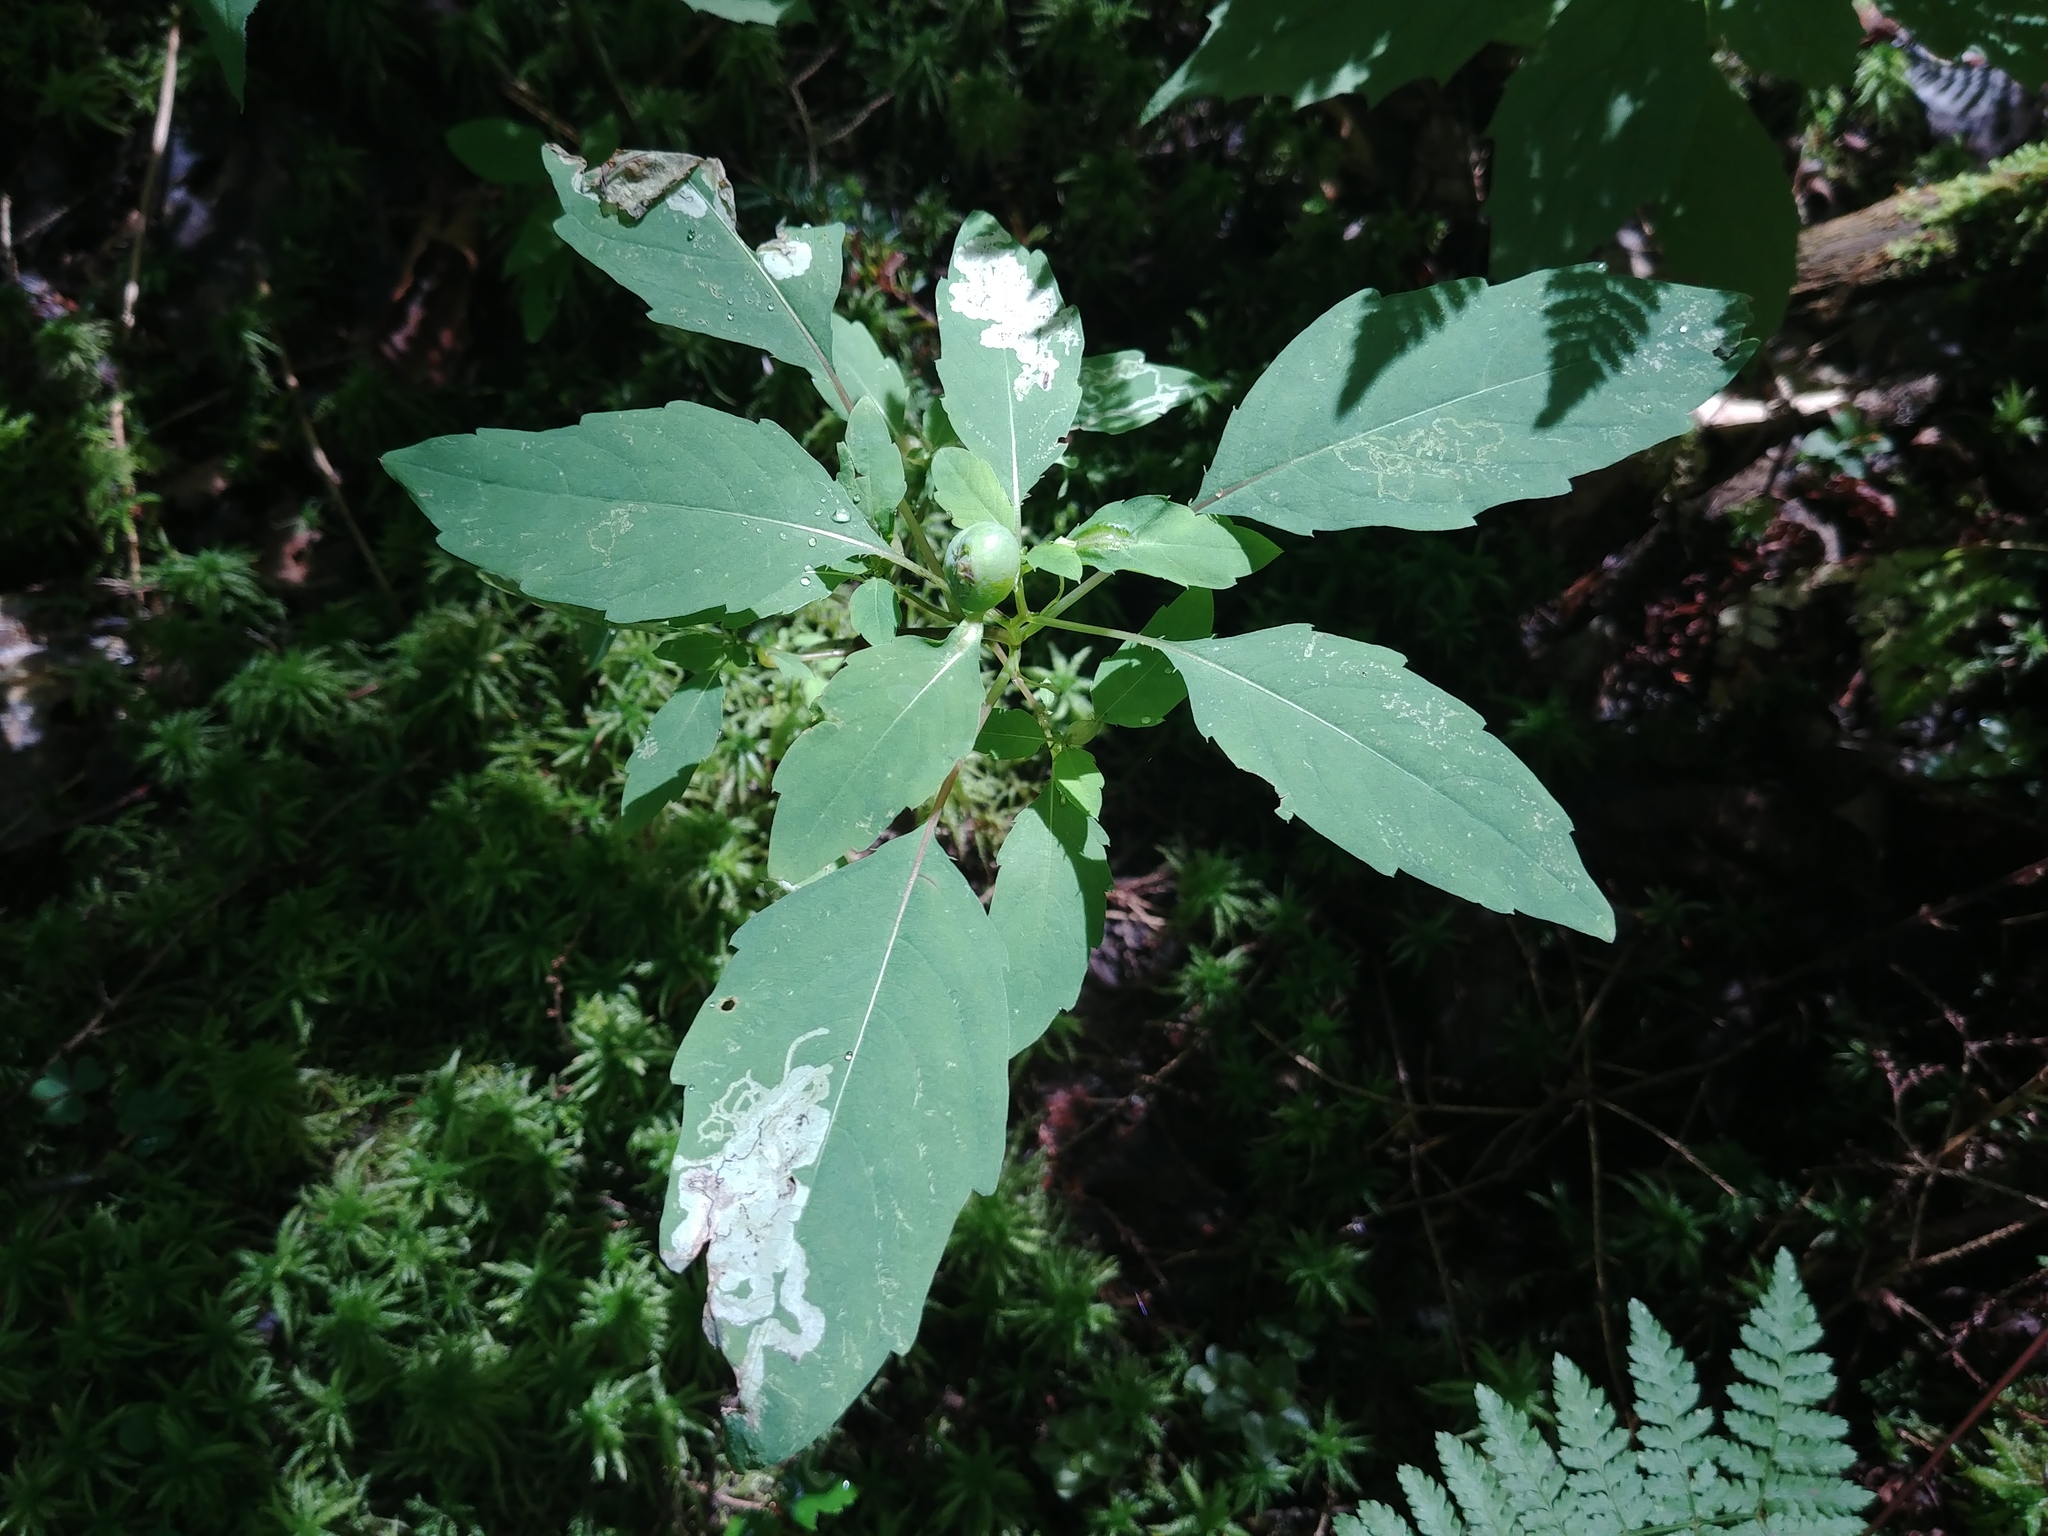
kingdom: Animalia
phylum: Arthropoda
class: Insecta
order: Diptera
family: Cecidomyiidae
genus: Schizomyia
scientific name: Schizomyia impatientis
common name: Jewelweed gall midge
